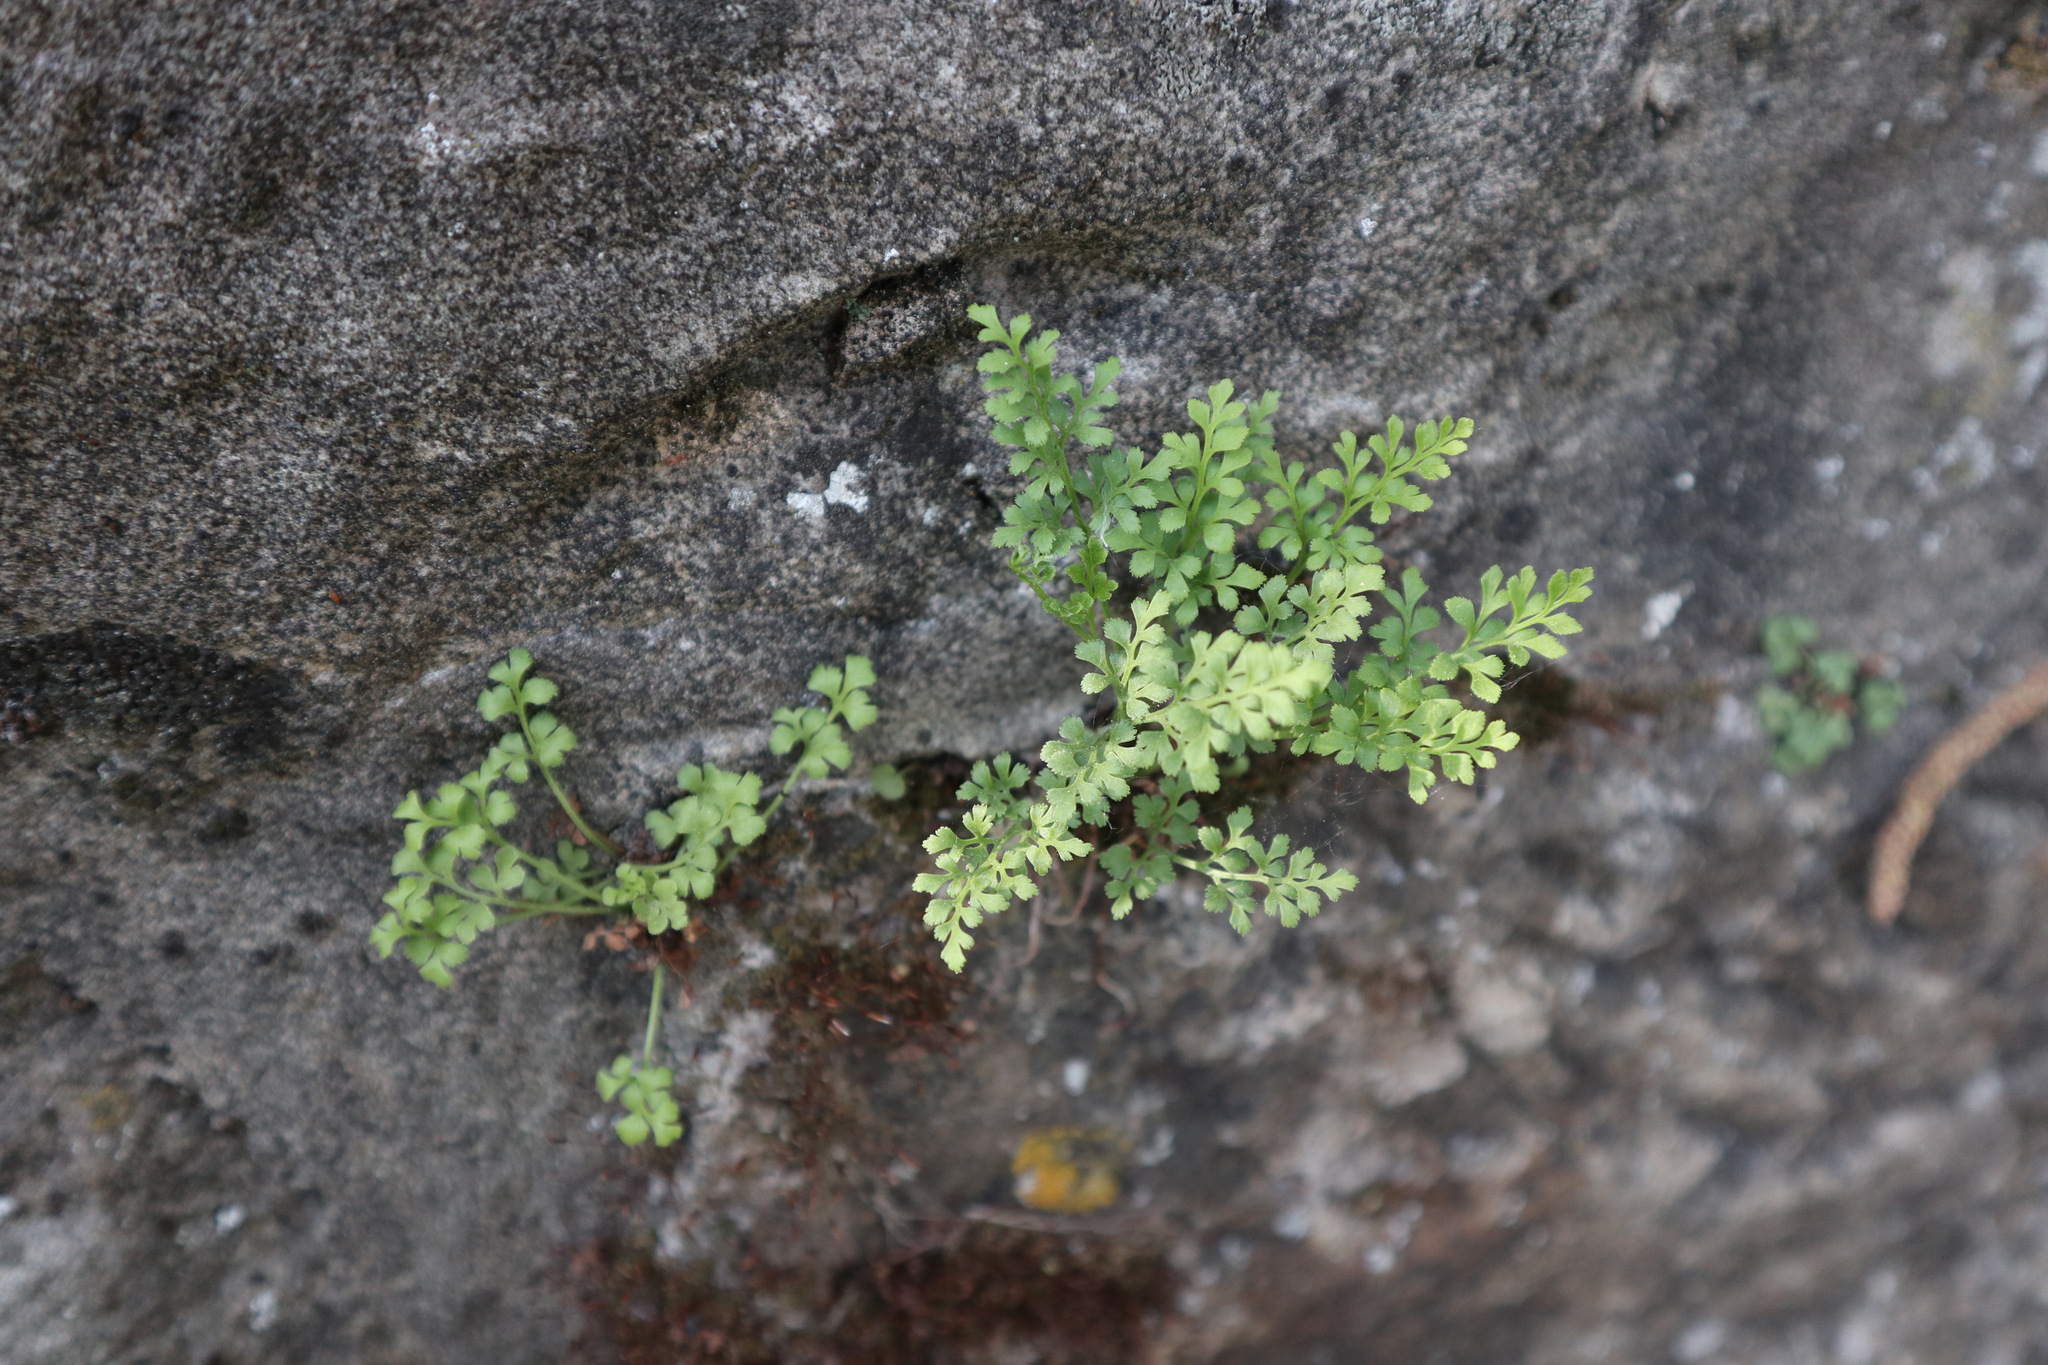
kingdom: Plantae
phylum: Tracheophyta
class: Polypodiopsida
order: Polypodiales
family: Aspleniaceae
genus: Asplenium
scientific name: Asplenium ruta-muraria
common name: Wall-rue
